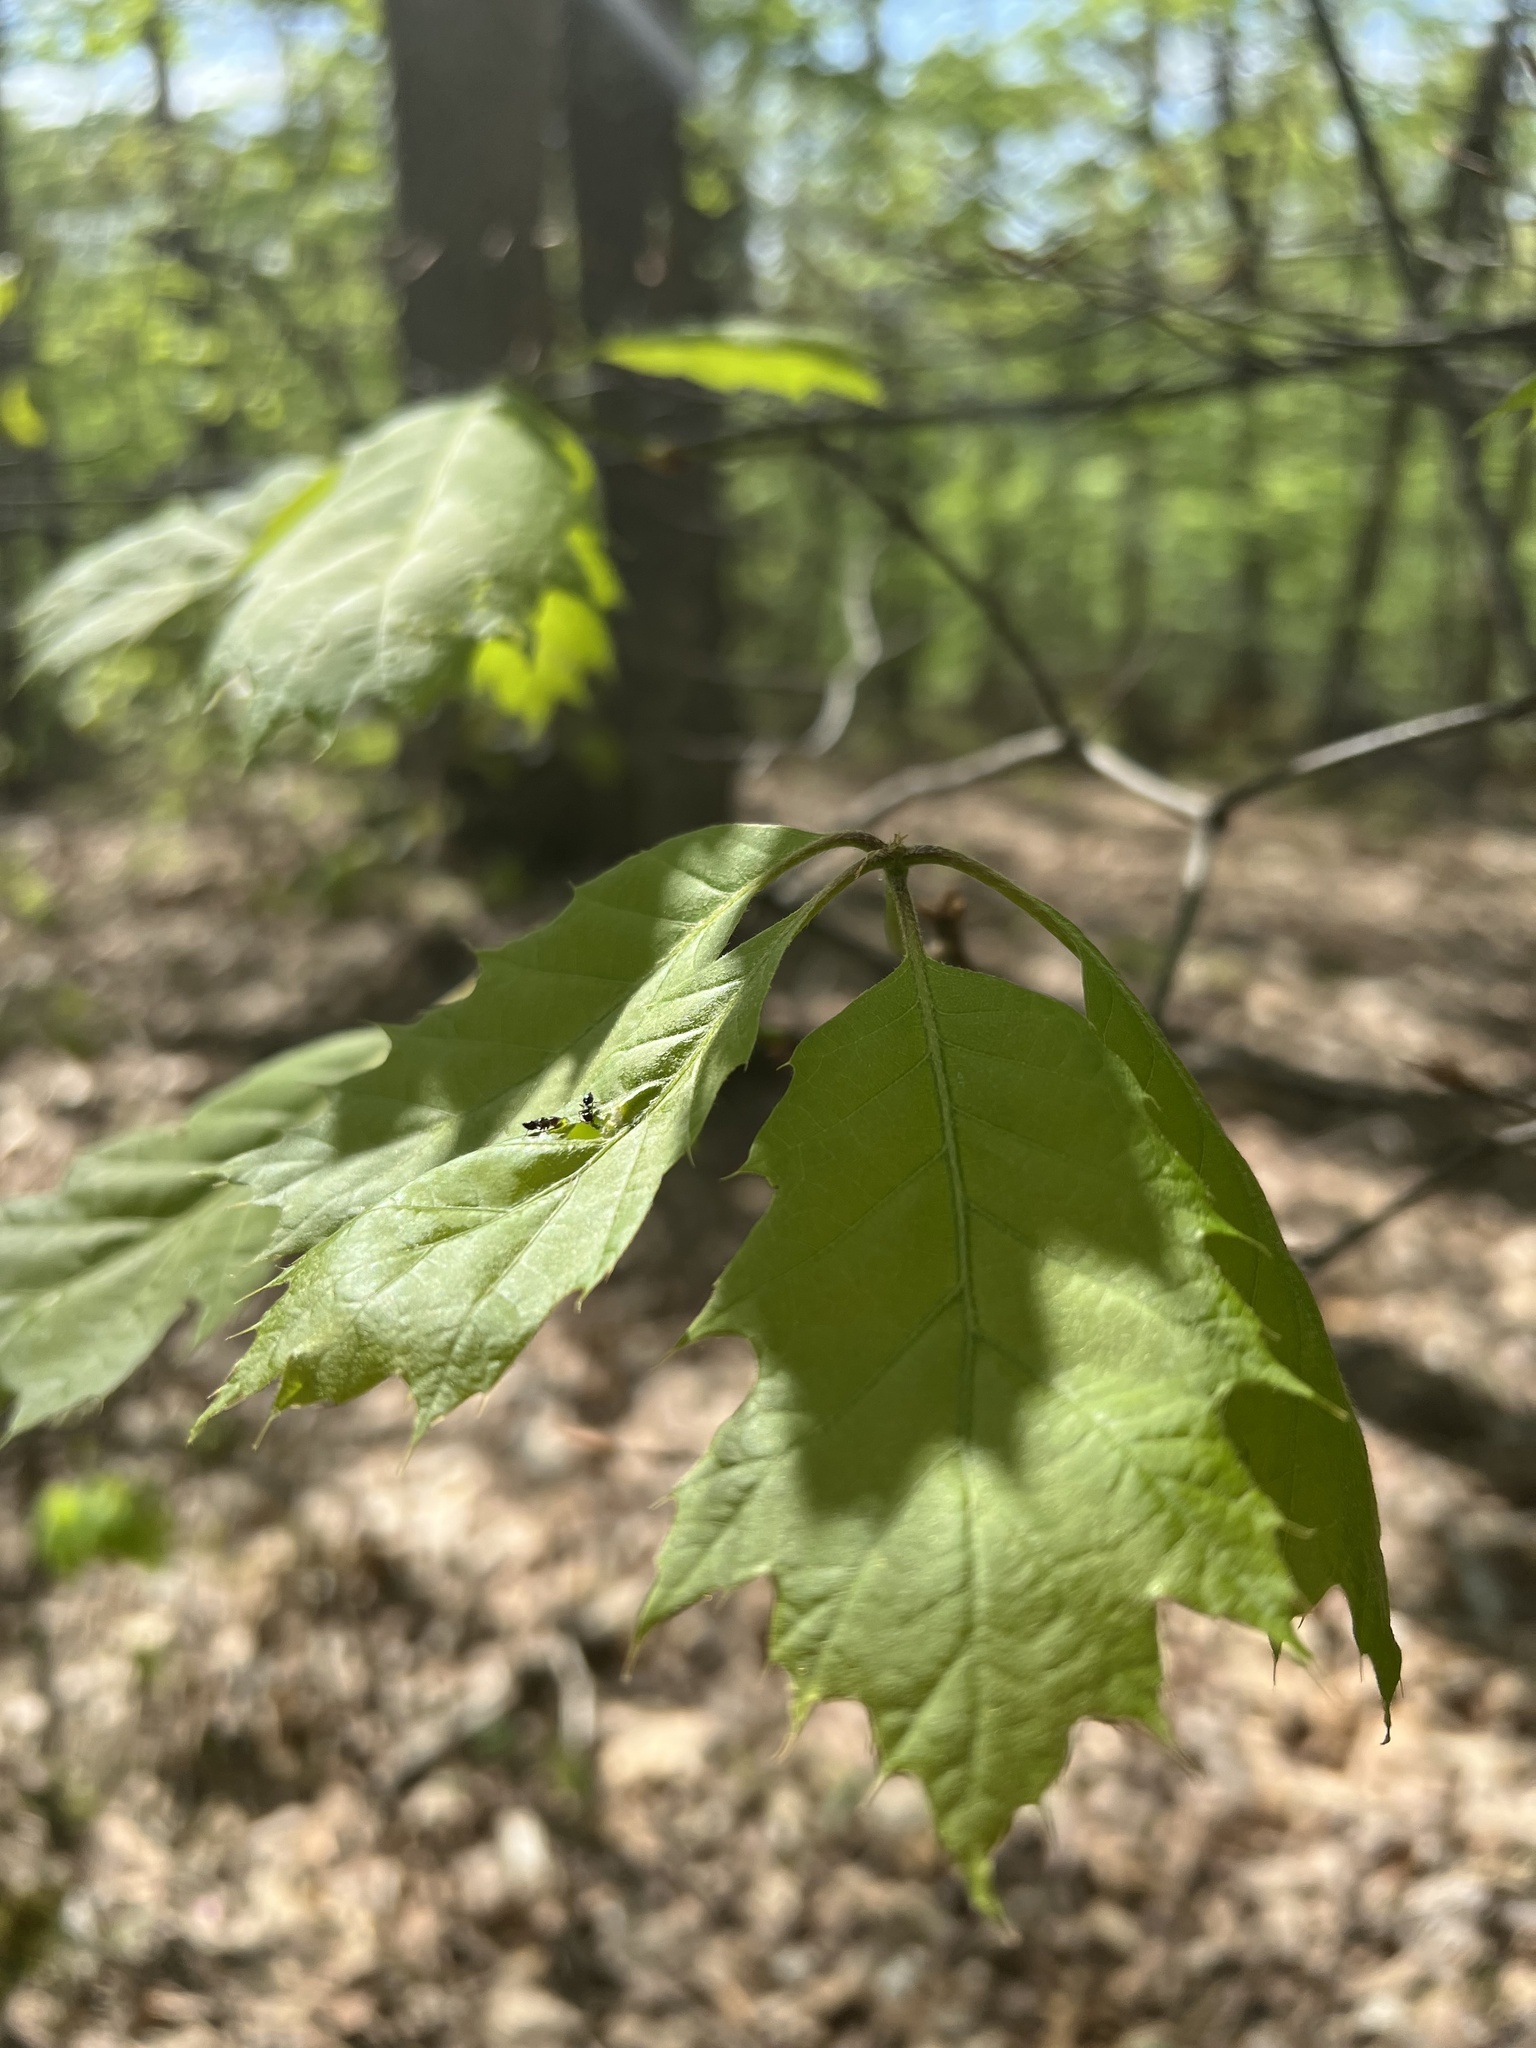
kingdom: Plantae
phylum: Tracheophyta
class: Magnoliopsida
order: Fagales
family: Fagaceae
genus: Quercus
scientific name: Quercus rubra
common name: Red oak
